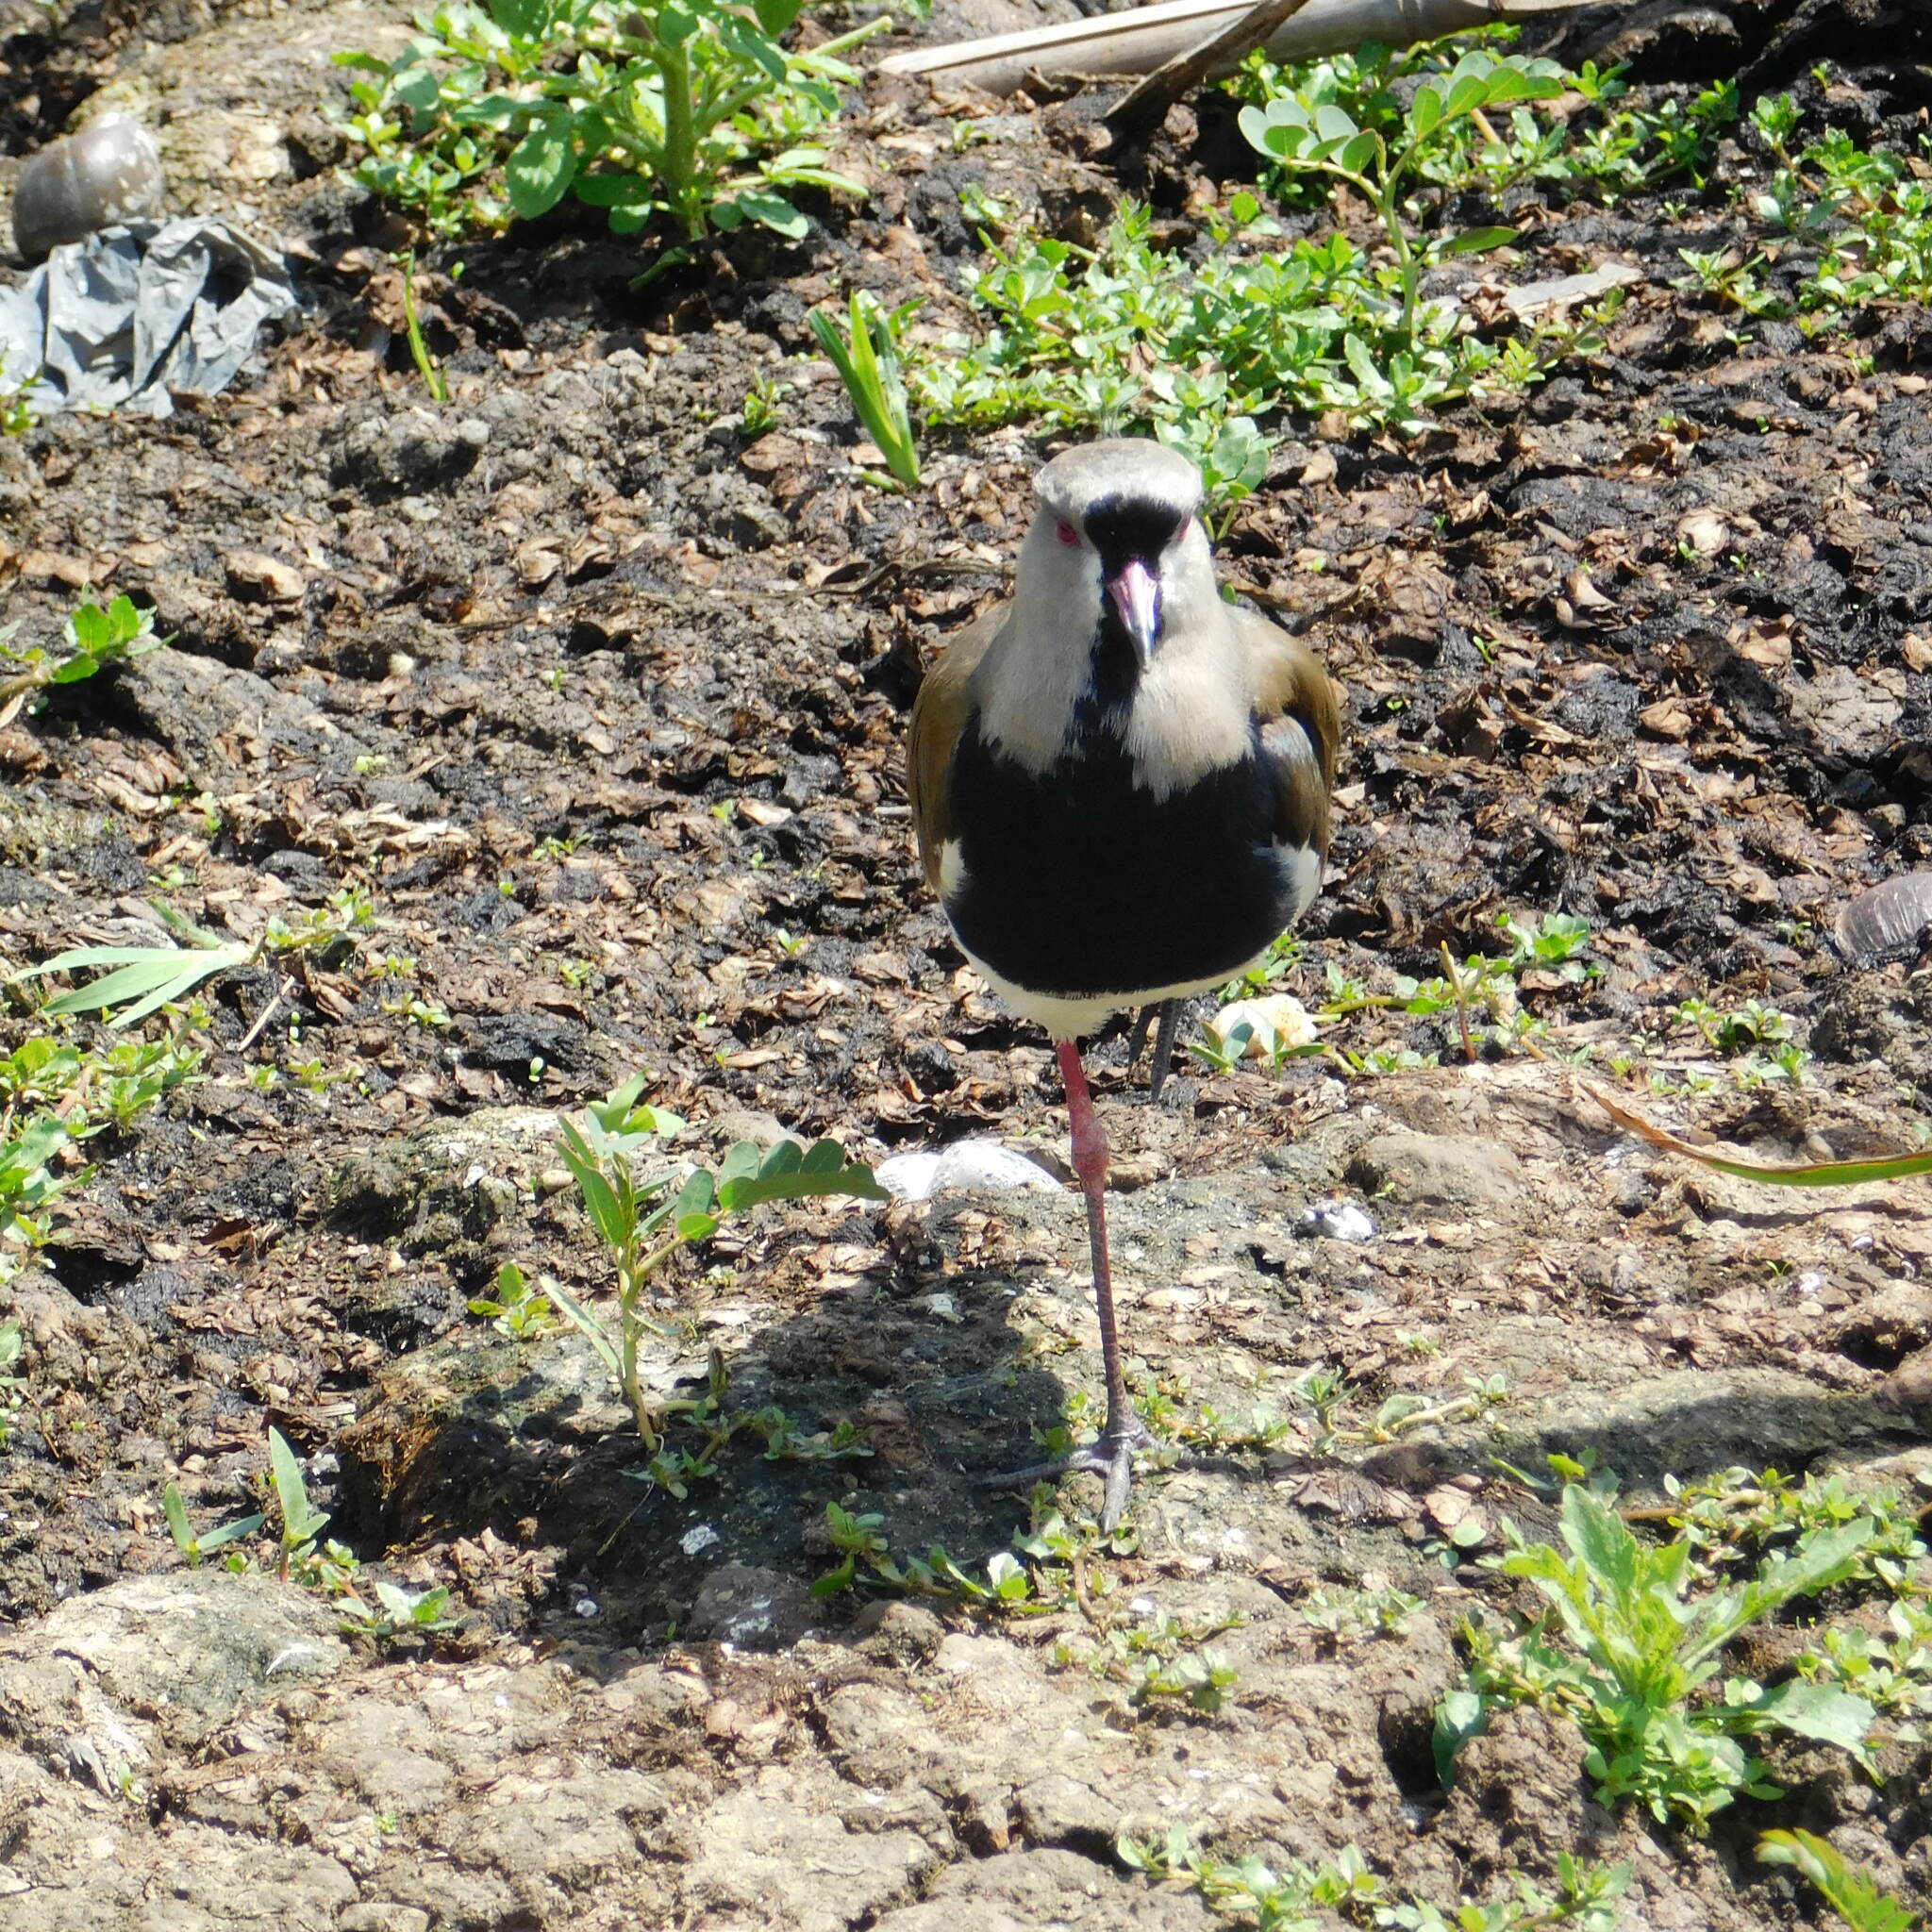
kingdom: Animalia
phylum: Chordata
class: Aves
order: Charadriiformes
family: Charadriidae
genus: Vanellus
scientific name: Vanellus chilensis
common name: Southern lapwing
